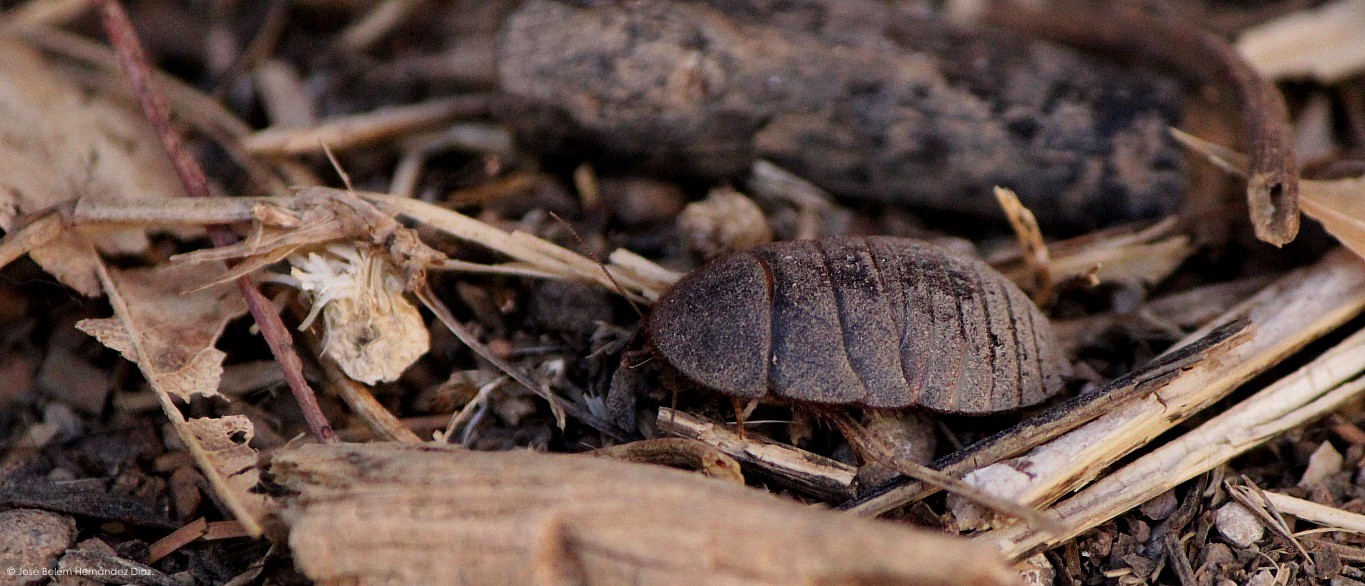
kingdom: Animalia
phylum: Arthropoda
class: Insecta
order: Blattodea
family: Corydiidae
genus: Homoeogamia
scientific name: Homoeogamia mexicana
